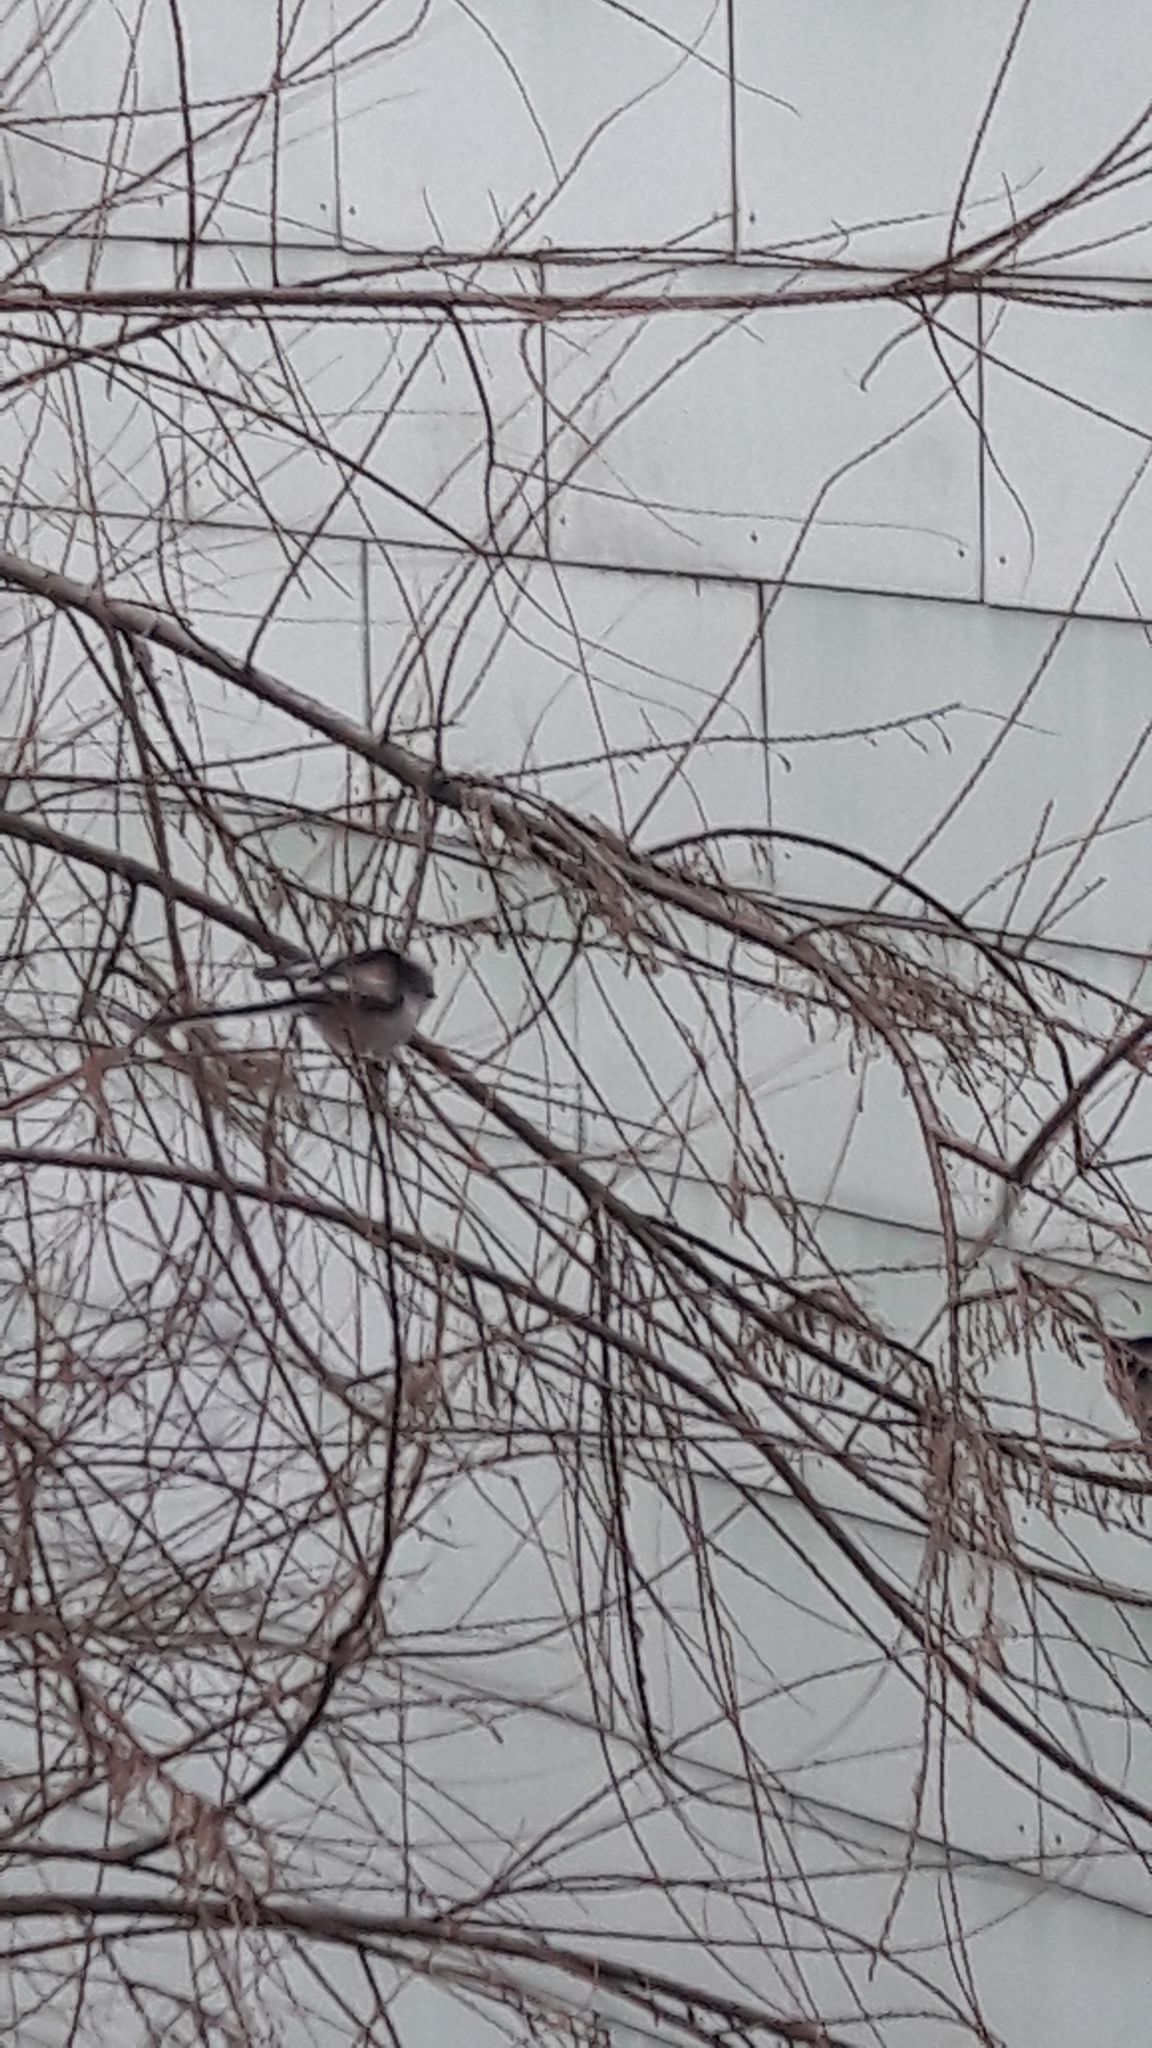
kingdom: Animalia
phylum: Chordata
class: Aves
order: Passeriformes
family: Aegithalidae
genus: Aegithalos
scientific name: Aegithalos caudatus
